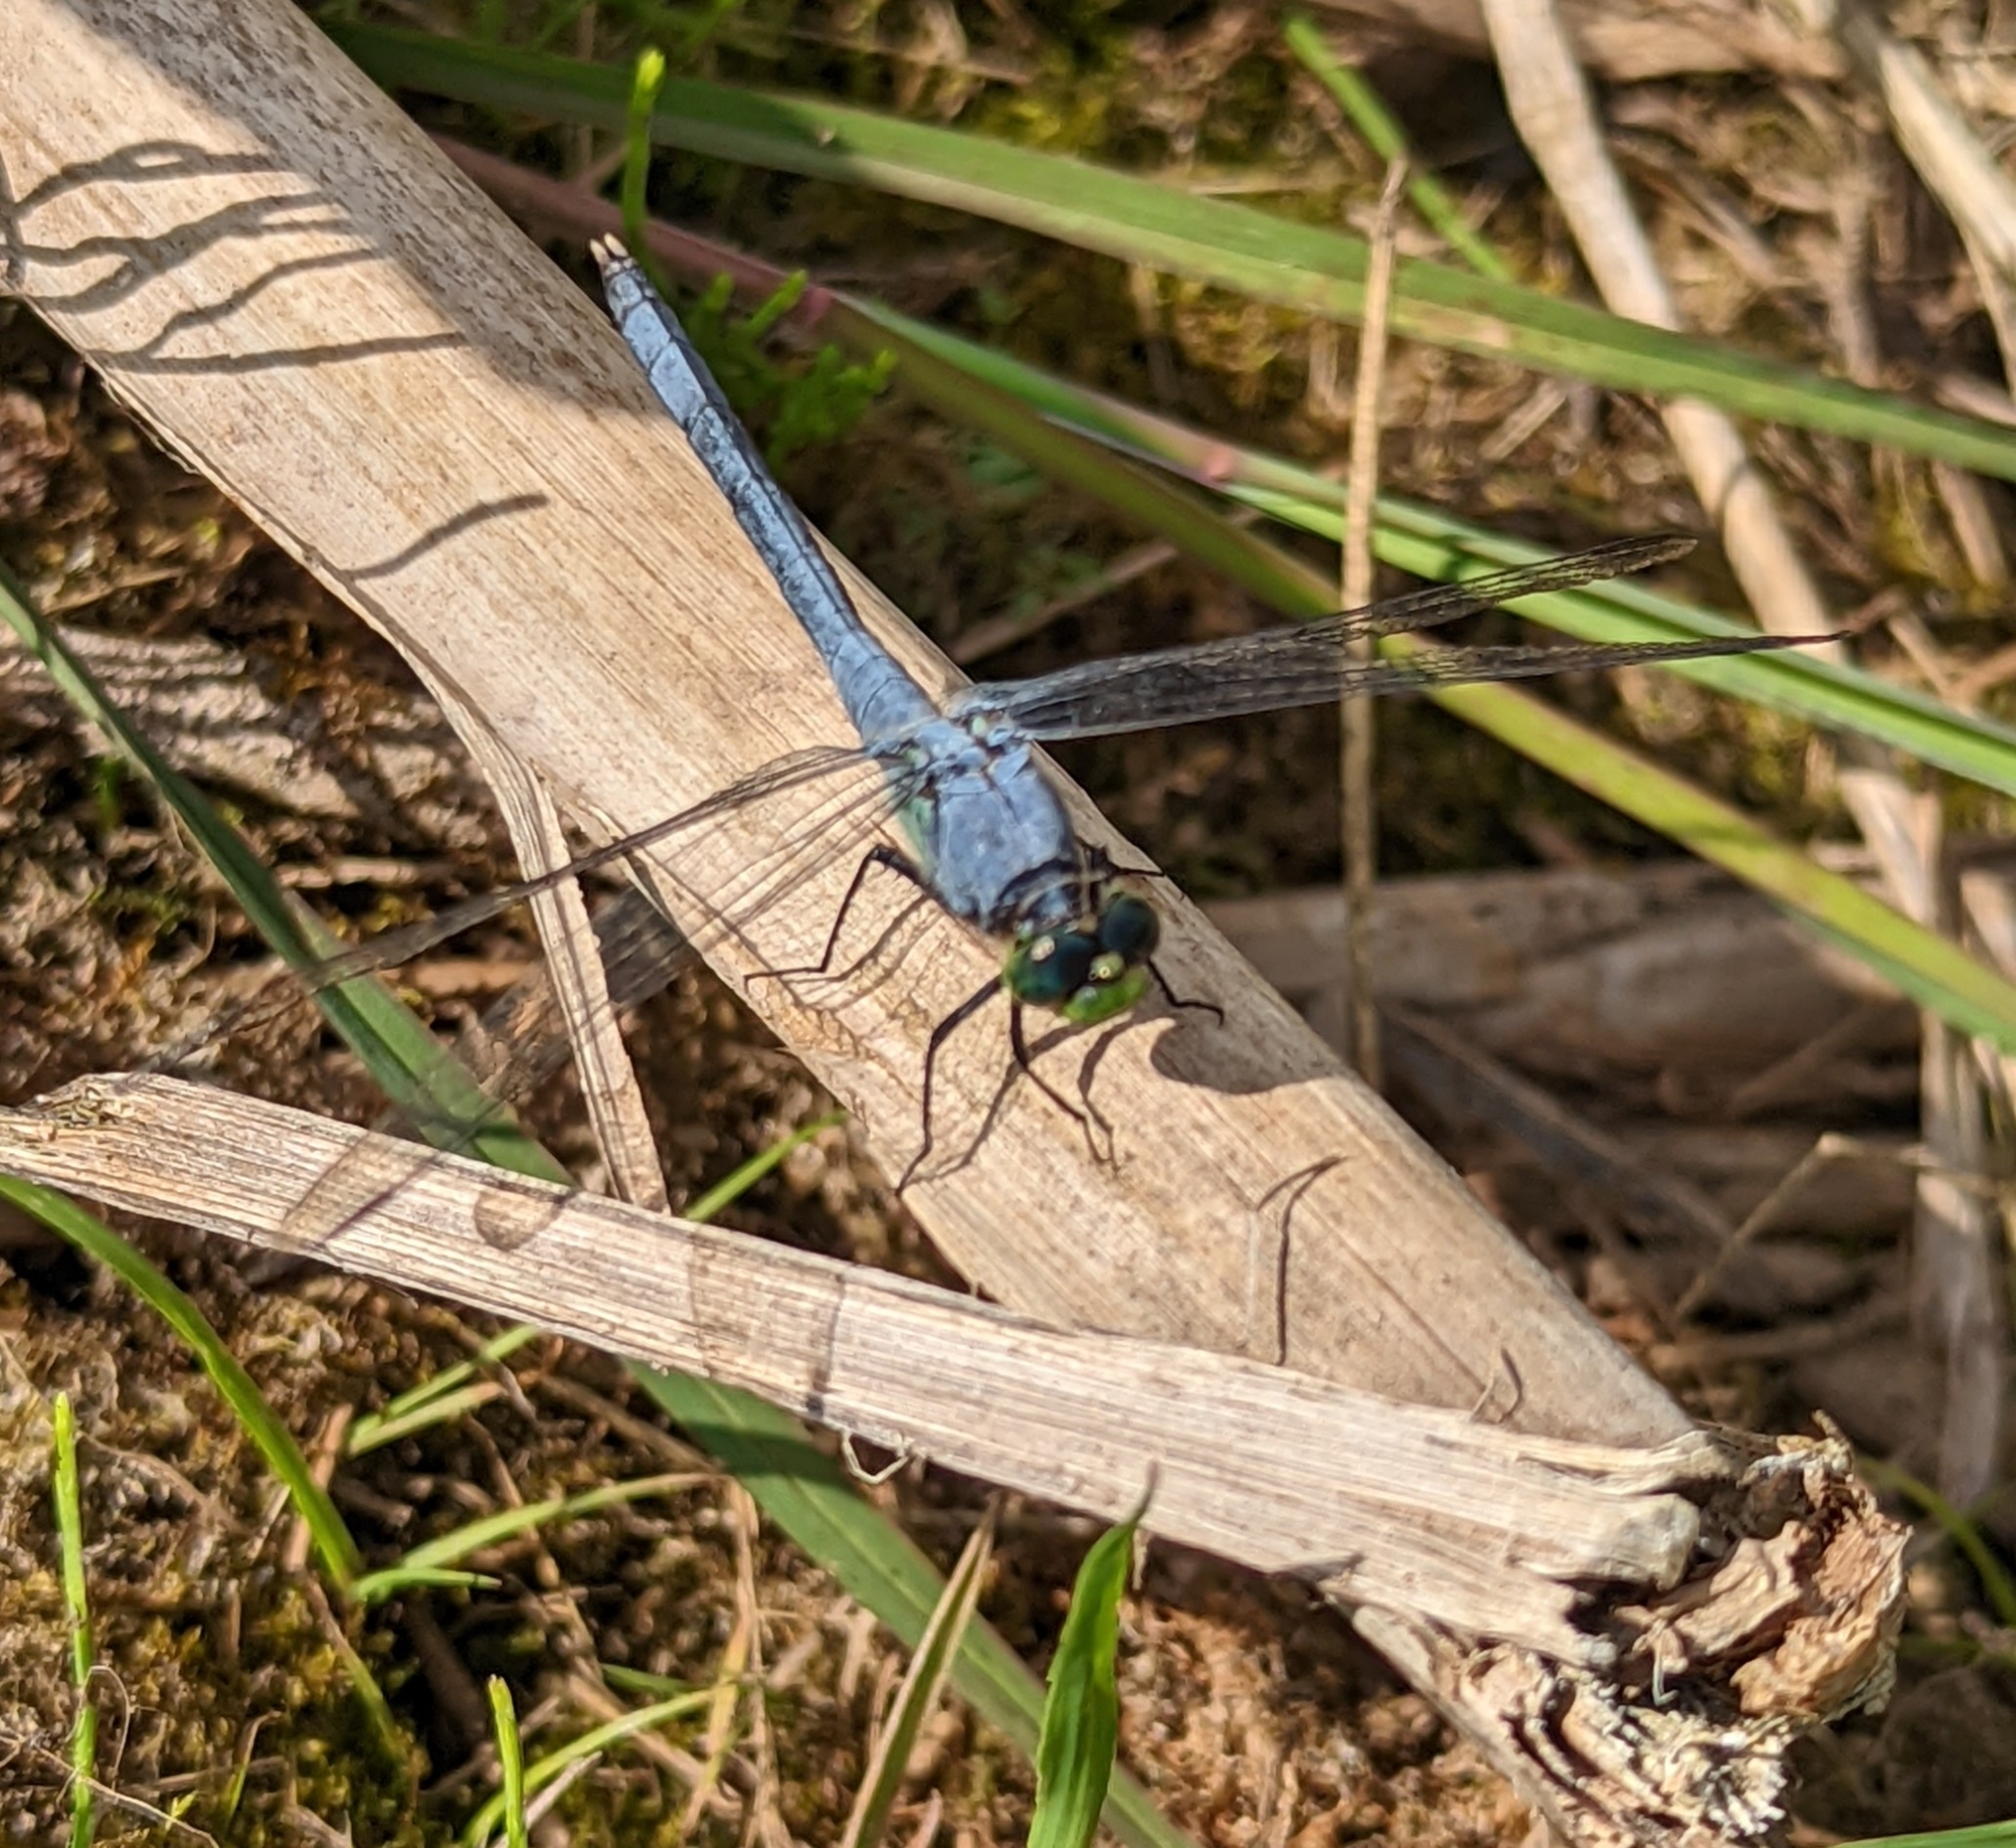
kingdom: Animalia
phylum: Arthropoda
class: Insecta
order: Odonata
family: Libellulidae
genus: Erythemis
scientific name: Erythemis simplicicollis
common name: Eastern pondhawk
